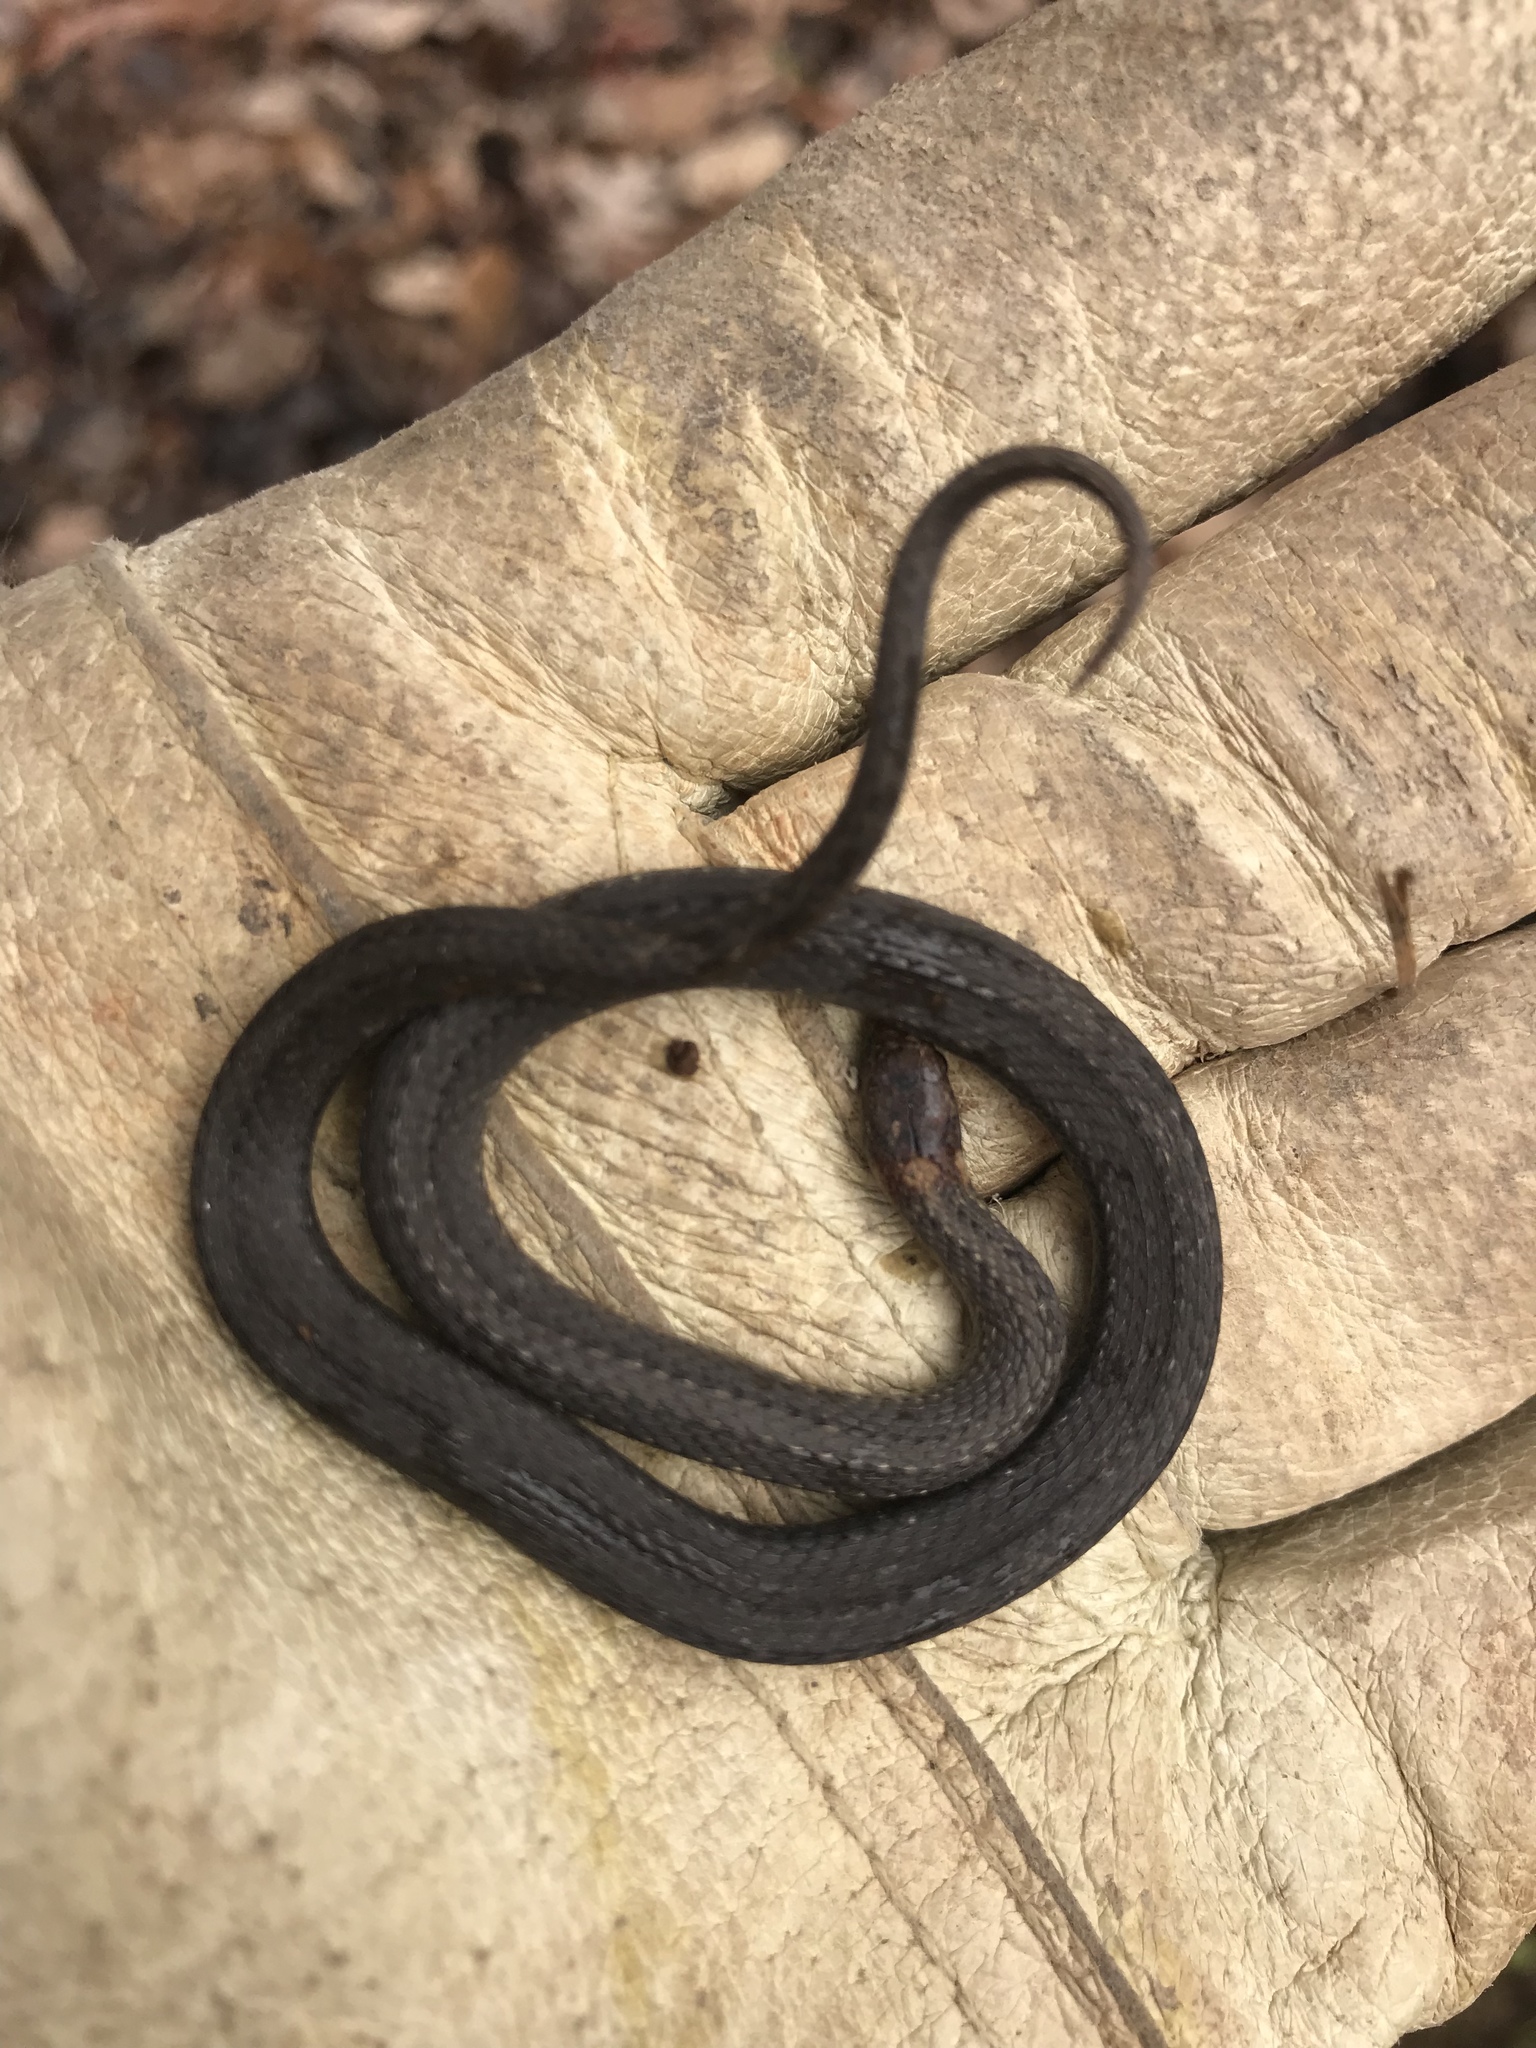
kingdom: Animalia
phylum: Chordata
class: Squamata
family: Colubridae
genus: Storeria
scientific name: Storeria occipitomaculata
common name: Redbelly snake
